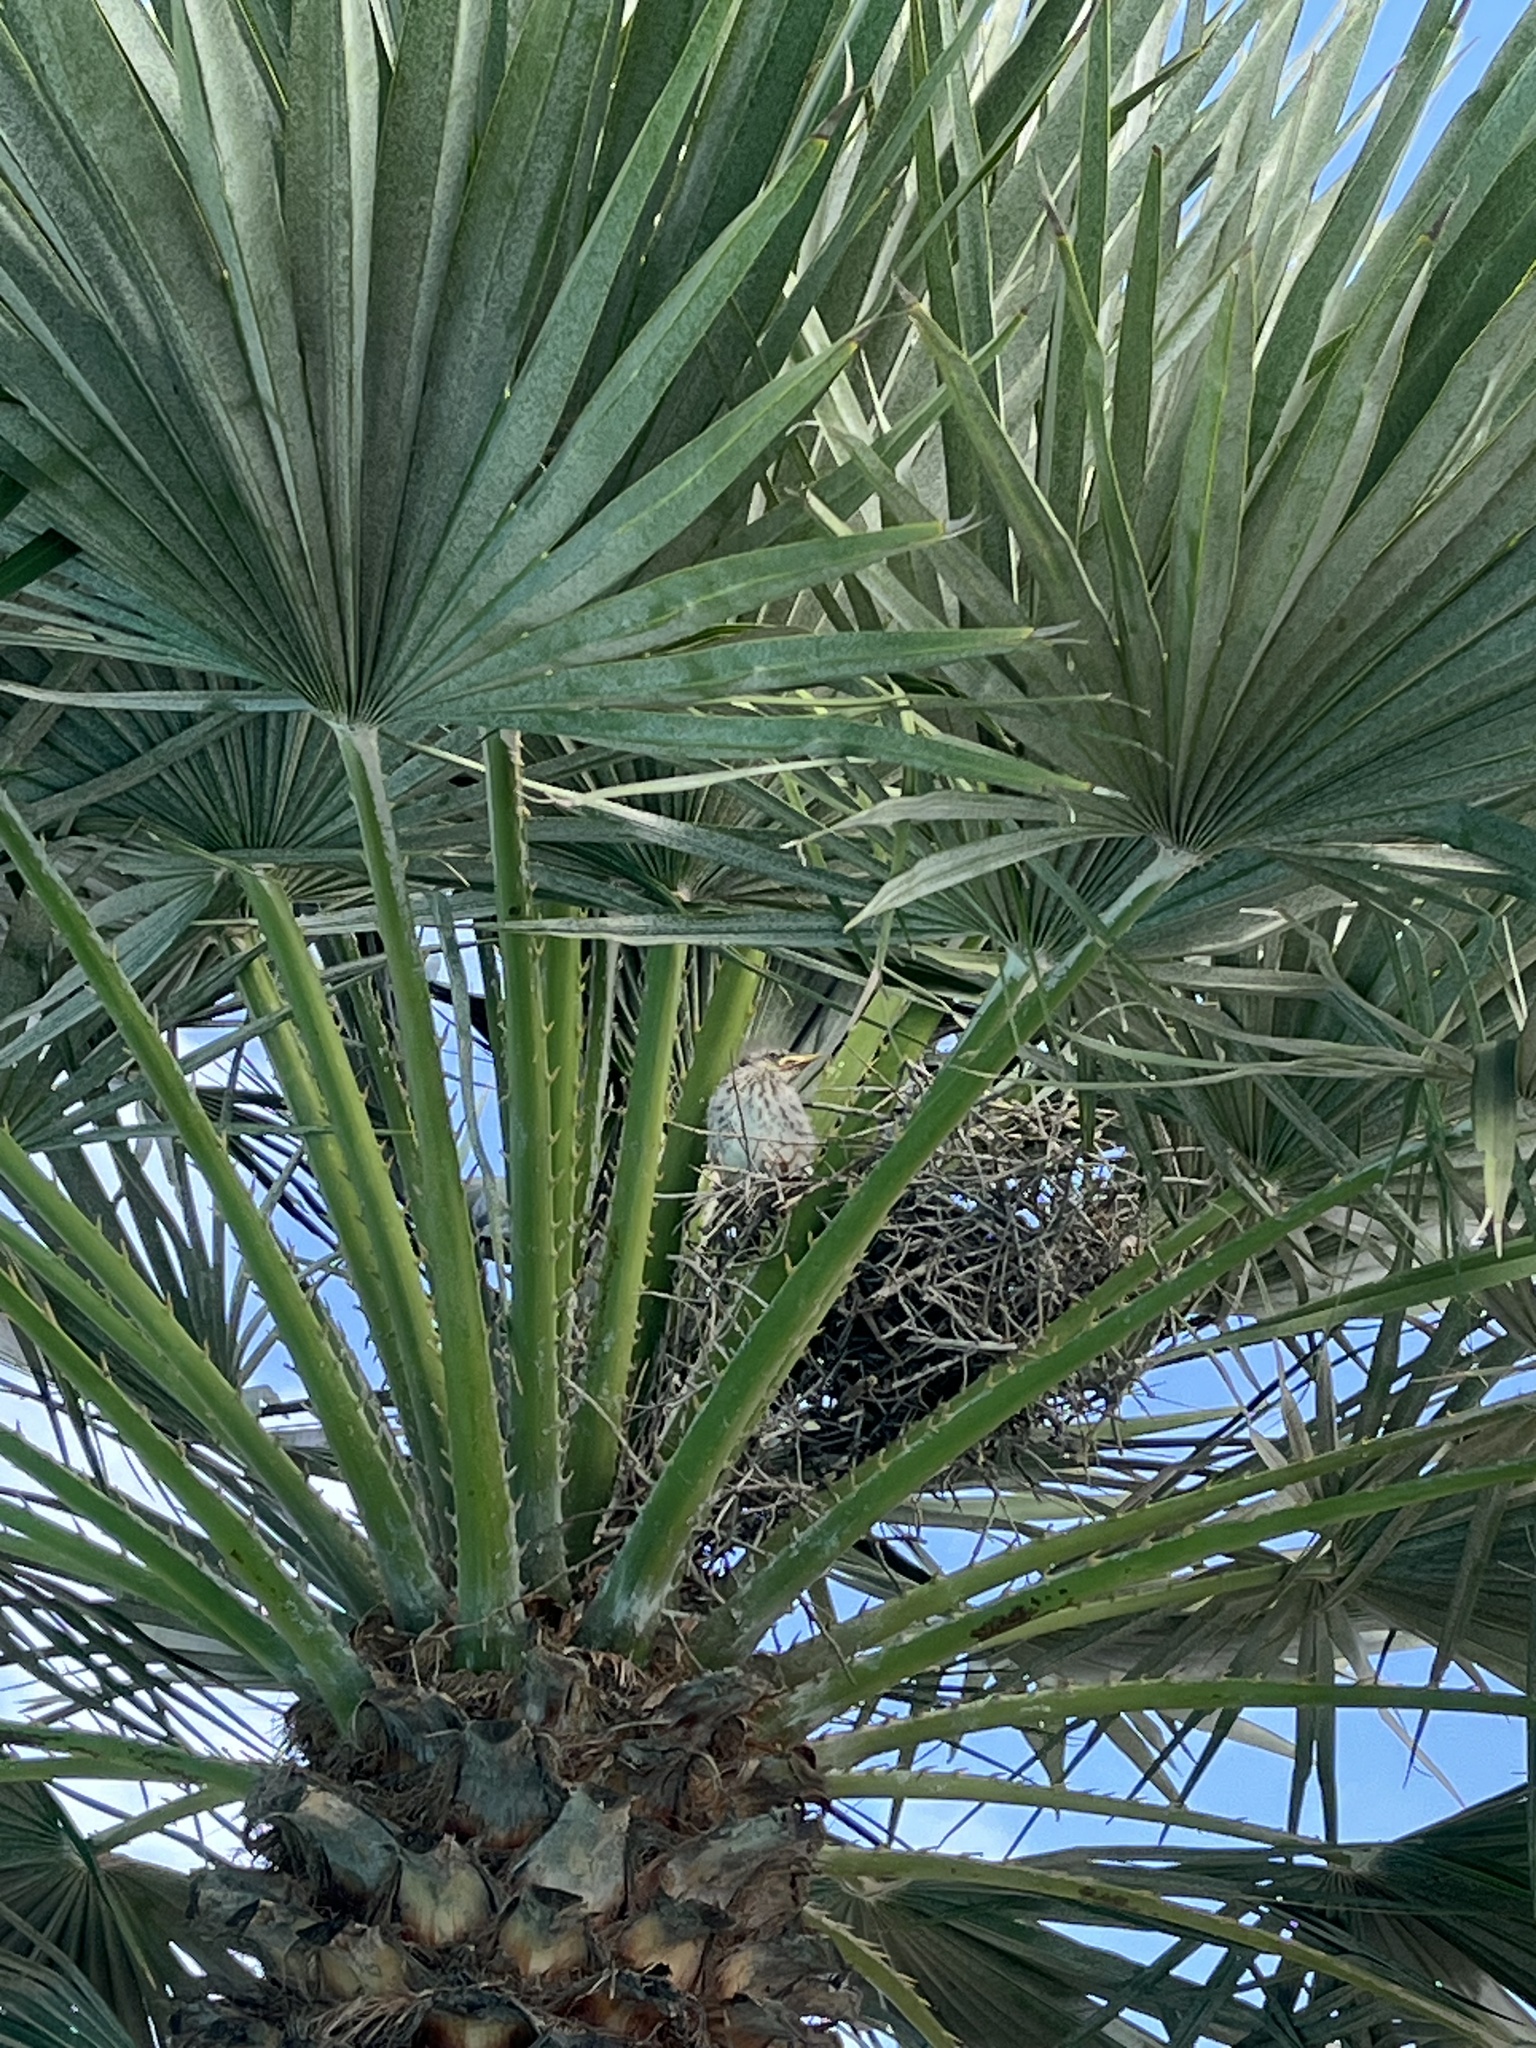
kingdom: Animalia
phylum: Chordata
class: Aves
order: Passeriformes
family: Mimidae
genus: Mimus
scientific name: Mimus polyglottos
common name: Northern mockingbird
